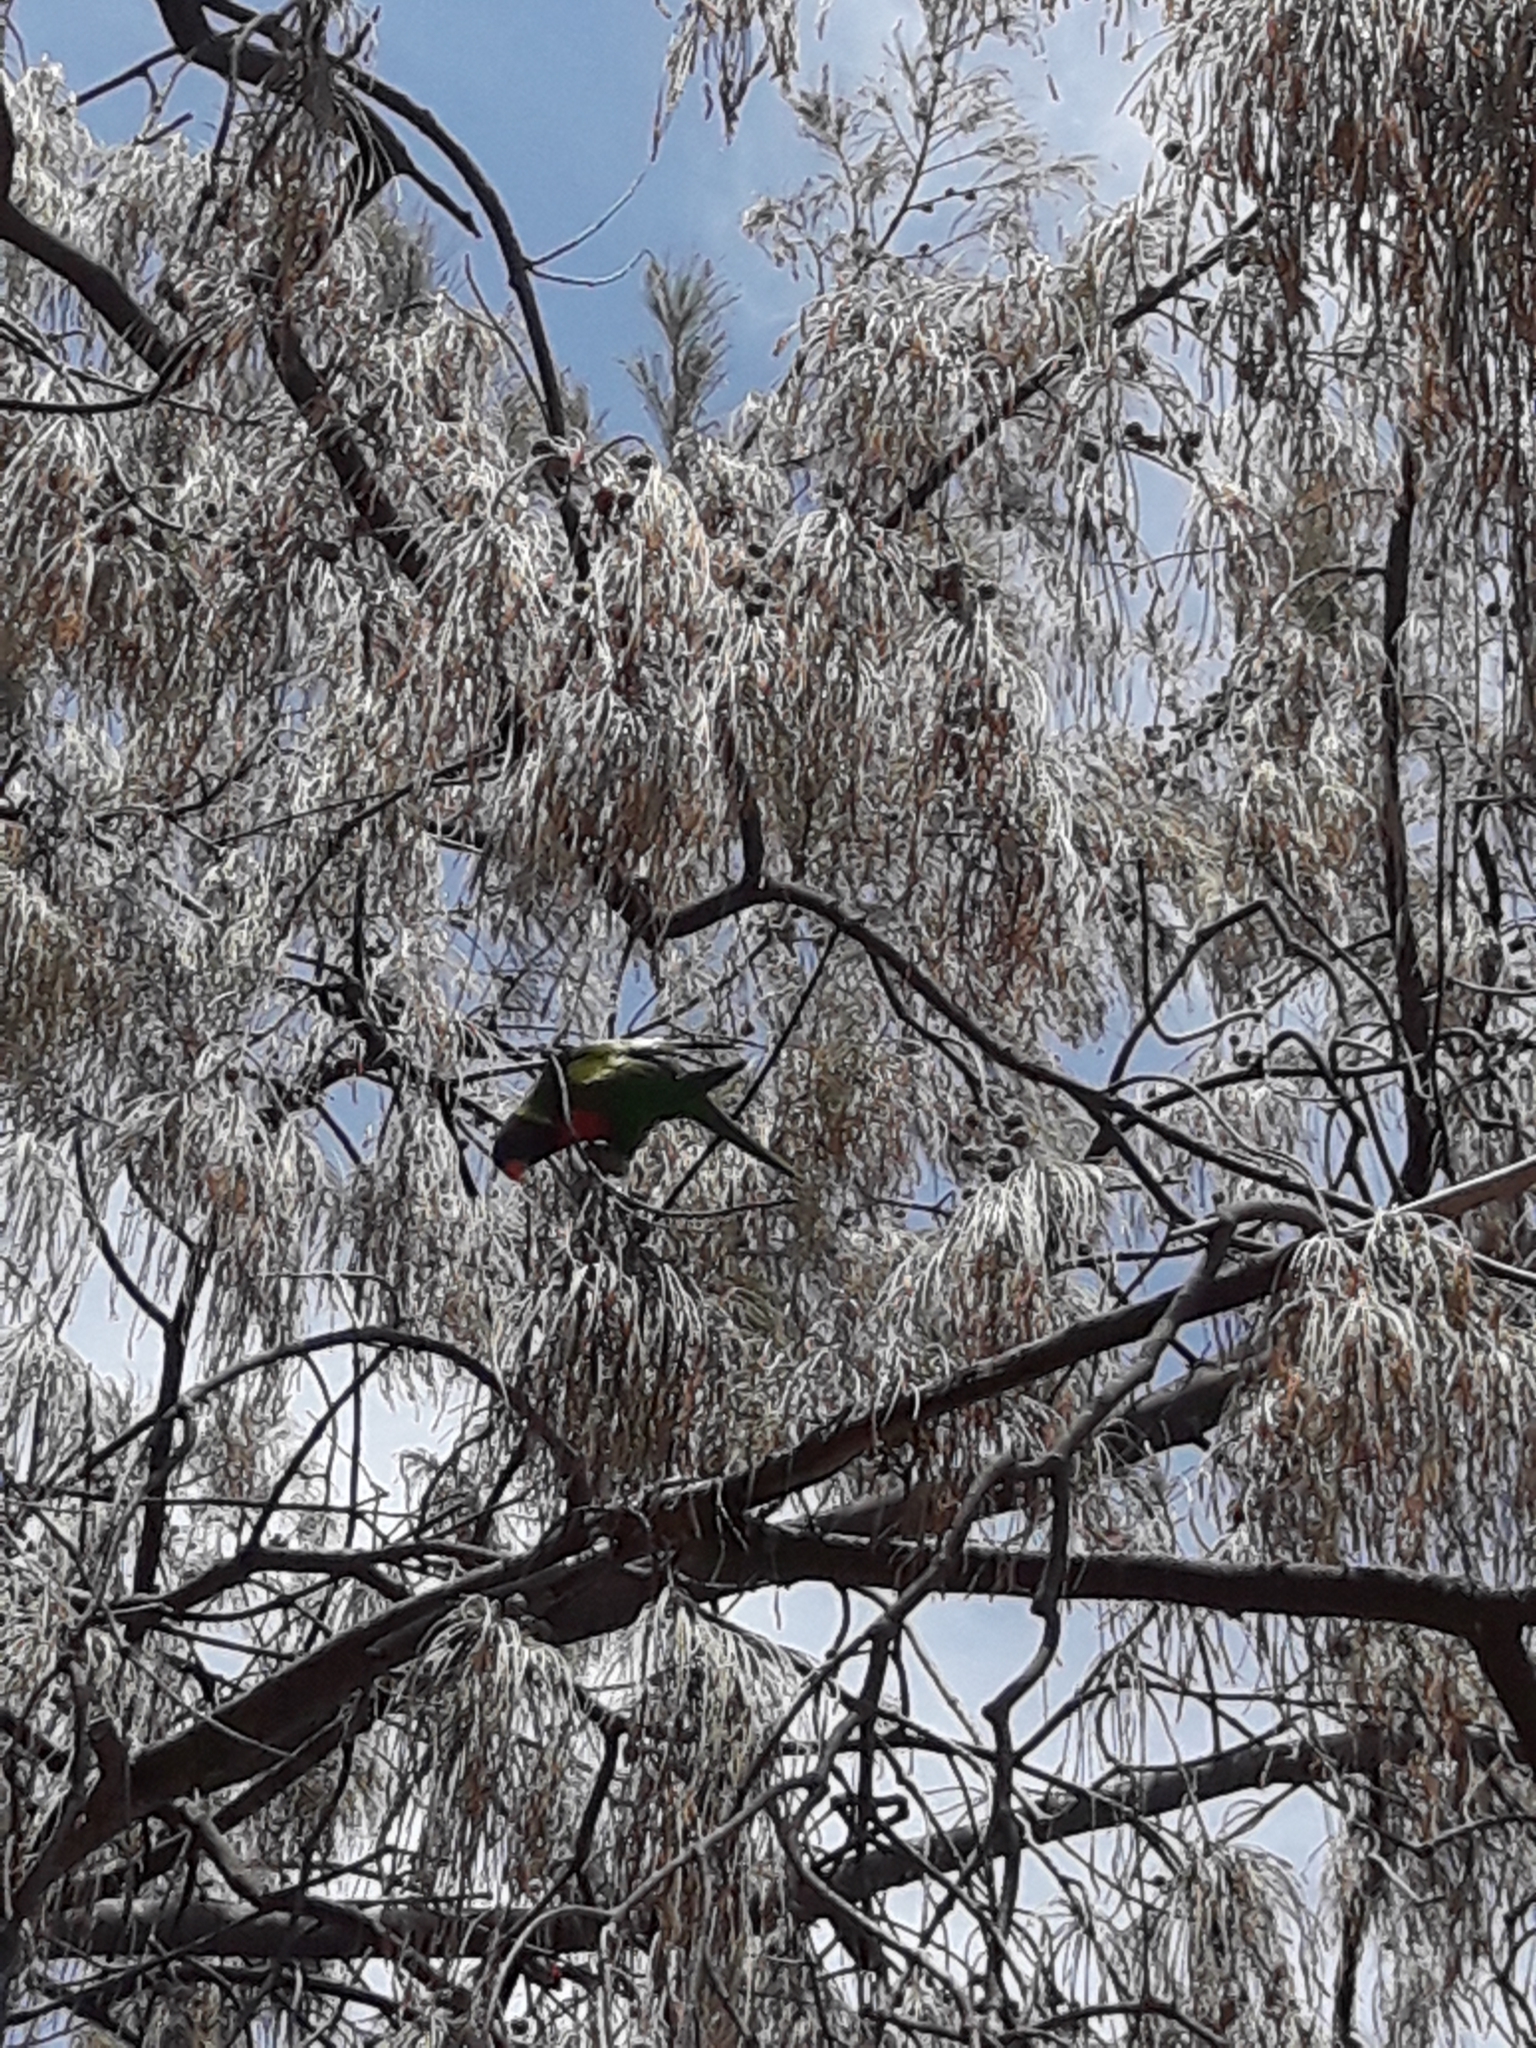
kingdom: Animalia
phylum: Chordata
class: Aves
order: Psittaciformes
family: Psittacidae
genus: Trichoglossus
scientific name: Trichoglossus haematodus
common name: Coconut lorikeet
